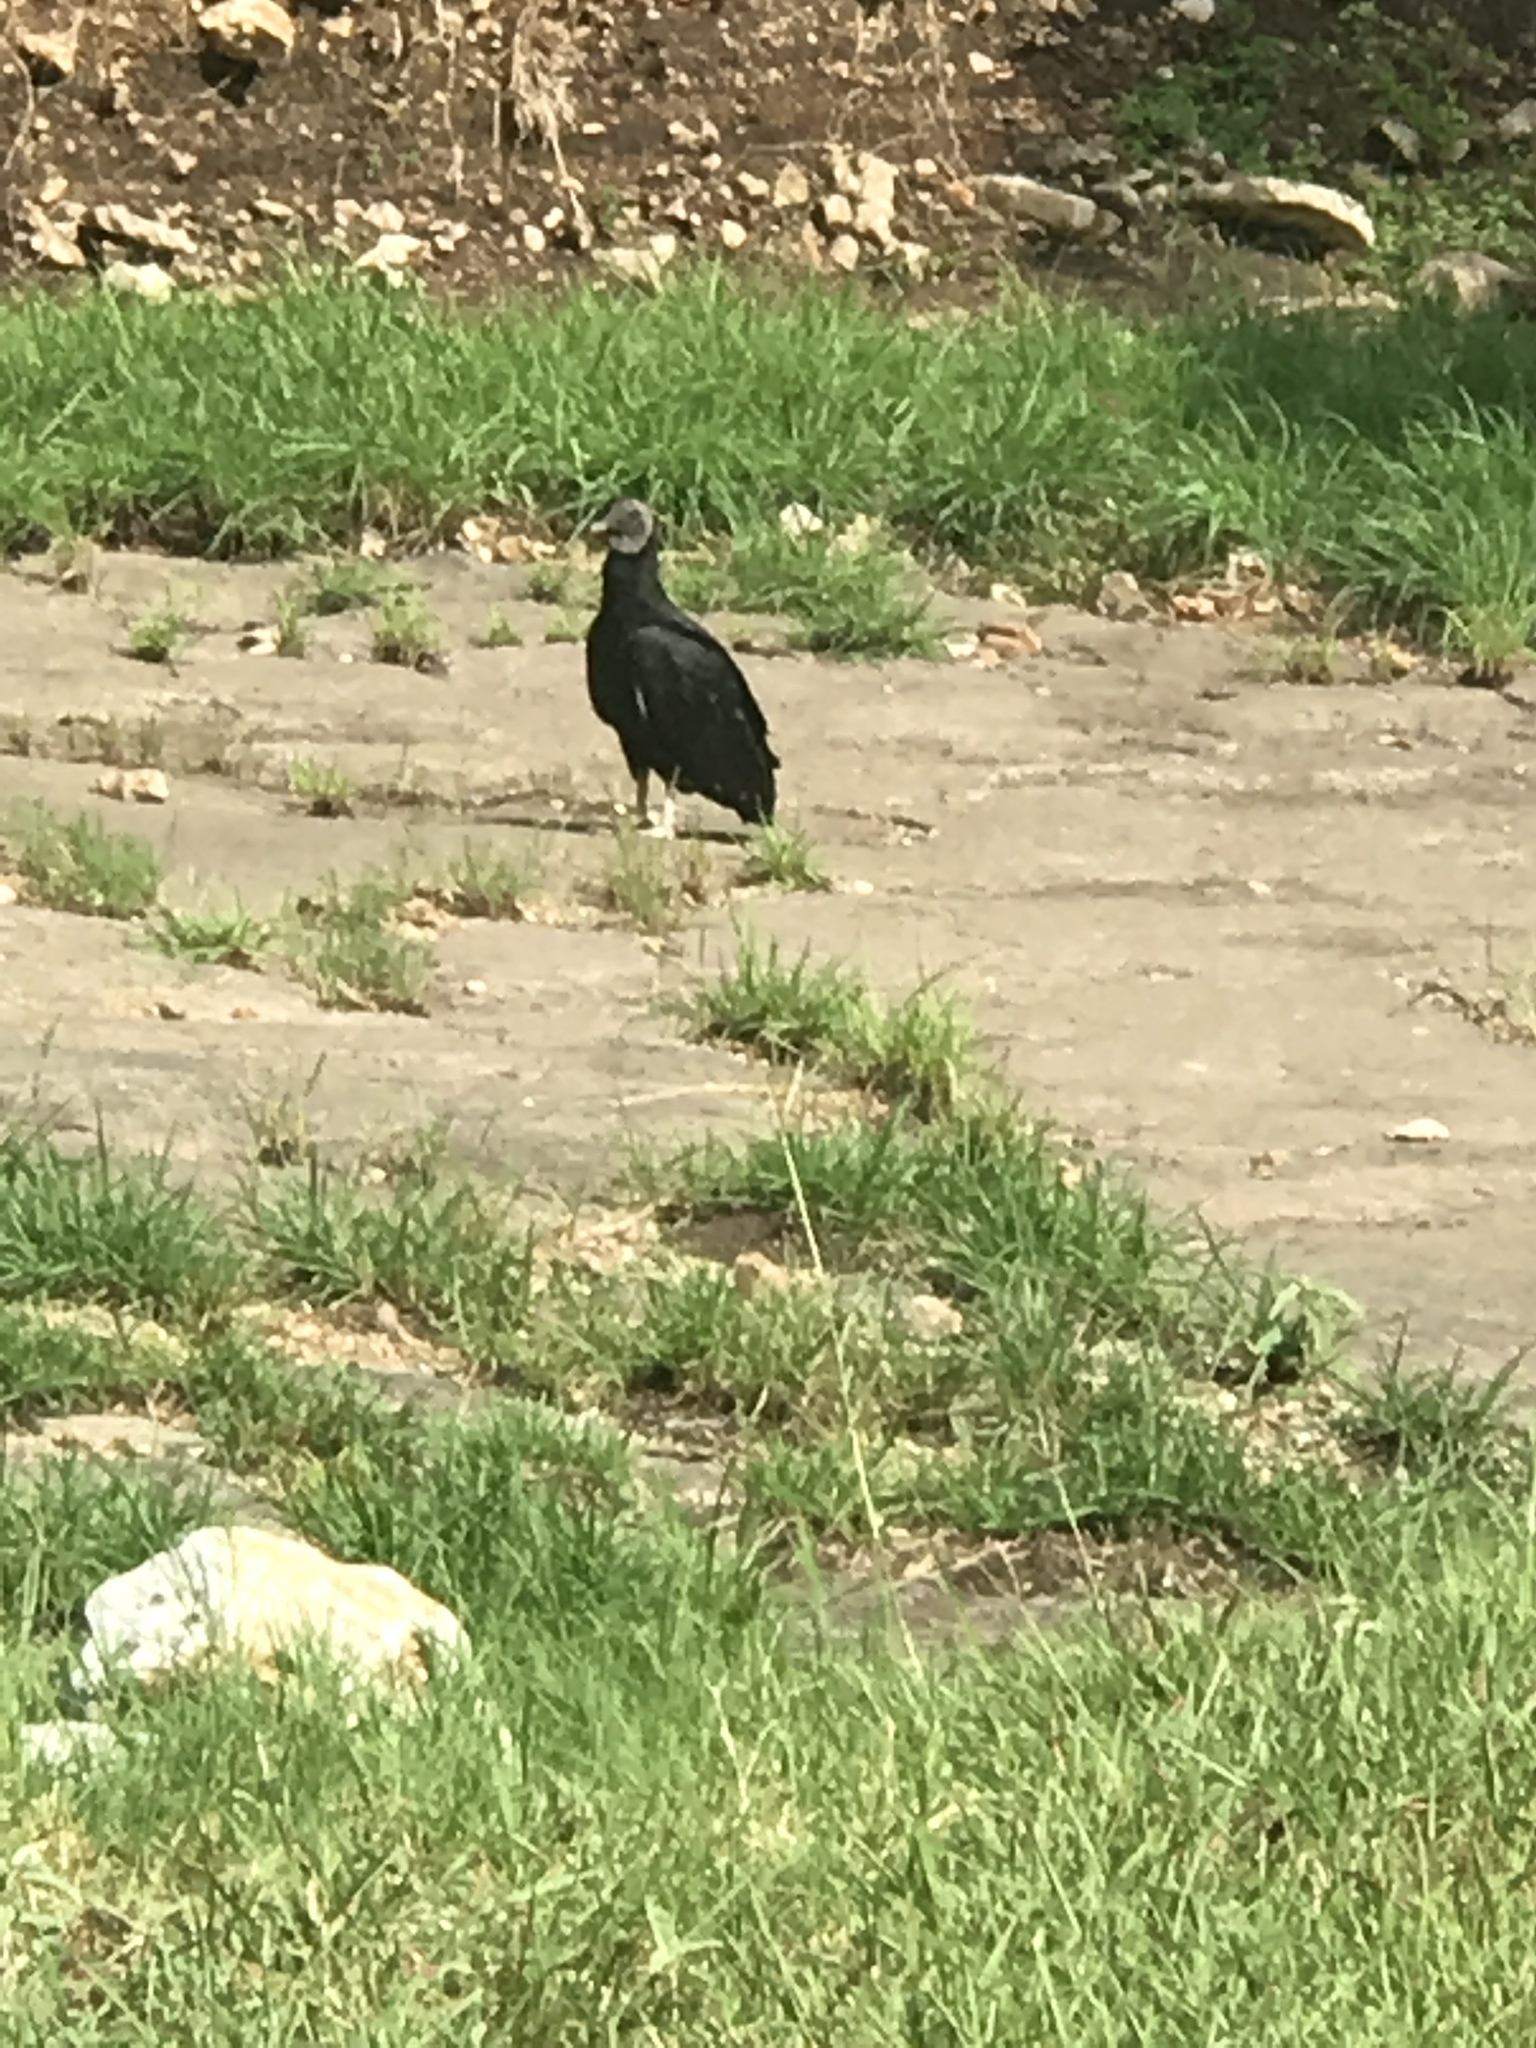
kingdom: Animalia
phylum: Chordata
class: Aves
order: Accipitriformes
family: Cathartidae
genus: Coragyps
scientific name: Coragyps atratus
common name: Black vulture
